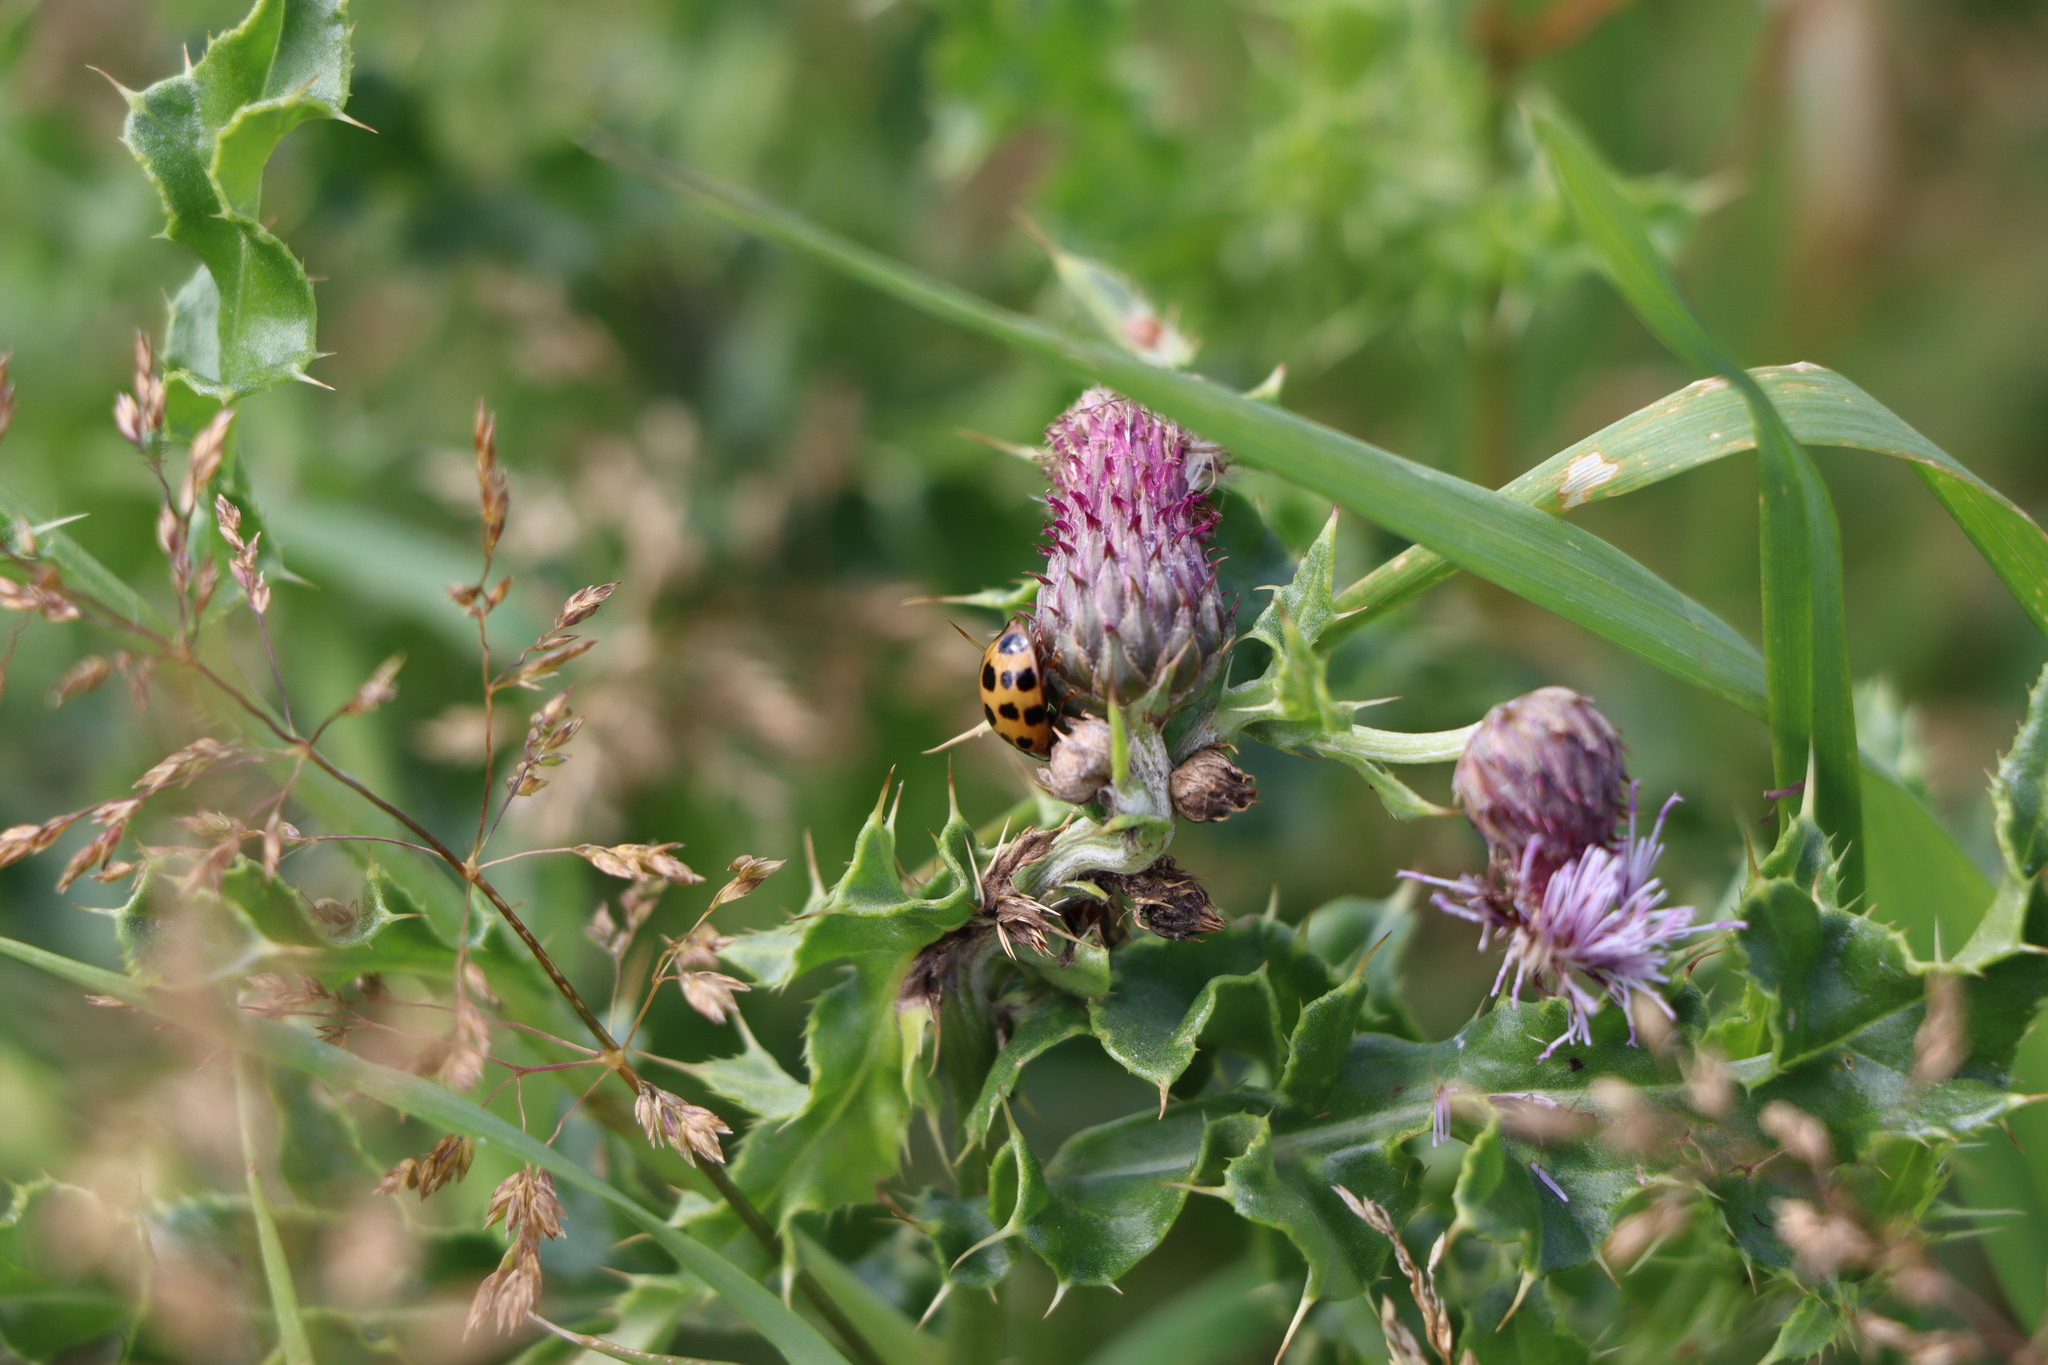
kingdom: Animalia
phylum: Arthropoda
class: Insecta
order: Coleoptera
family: Coccinellidae
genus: Harmonia
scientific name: Harmonia axyridis
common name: Harlequin ladybird
